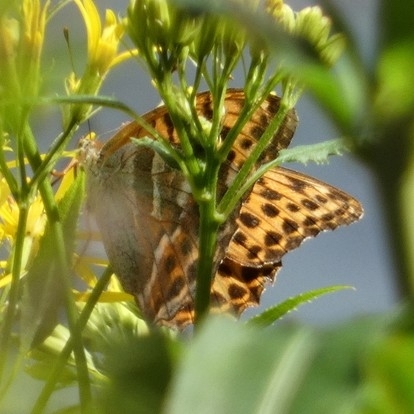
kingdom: Animalia
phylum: Arthropoda
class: Insecta
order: Lepidoptera
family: Nymphalidae
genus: Argynnis
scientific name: Argynnis paphia
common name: Silver-washed fritillary
